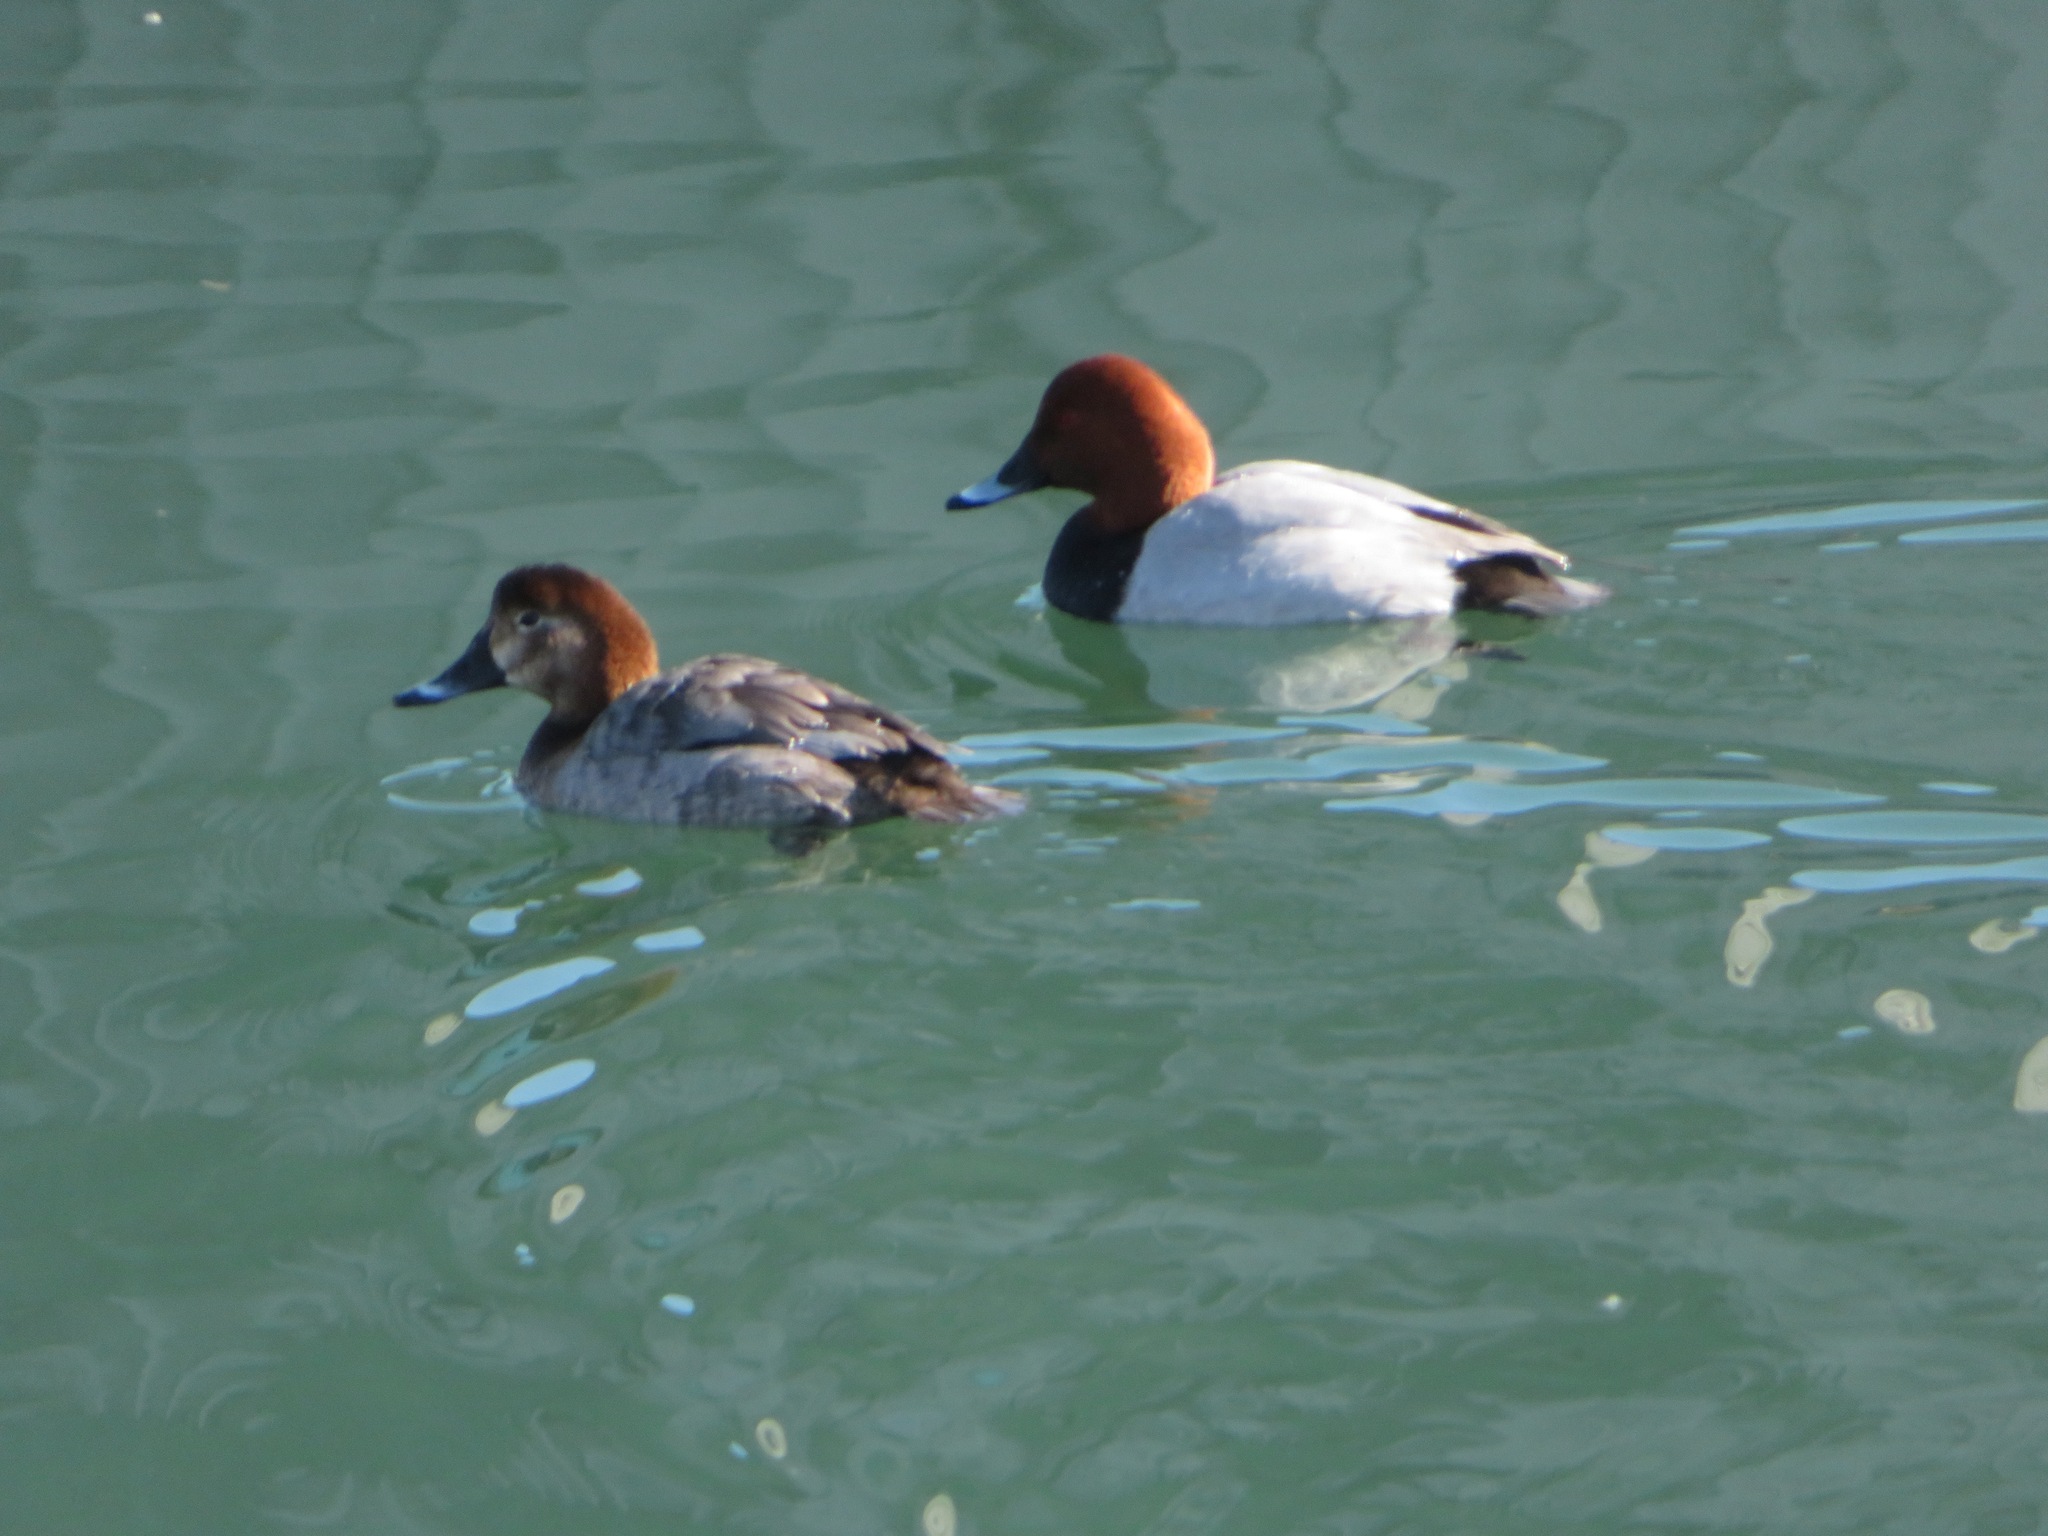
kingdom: Animalia
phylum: Chordata
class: Aves
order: Anseriformes
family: Anatidae
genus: Aythya
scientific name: Aythya ferina
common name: Common pochard
